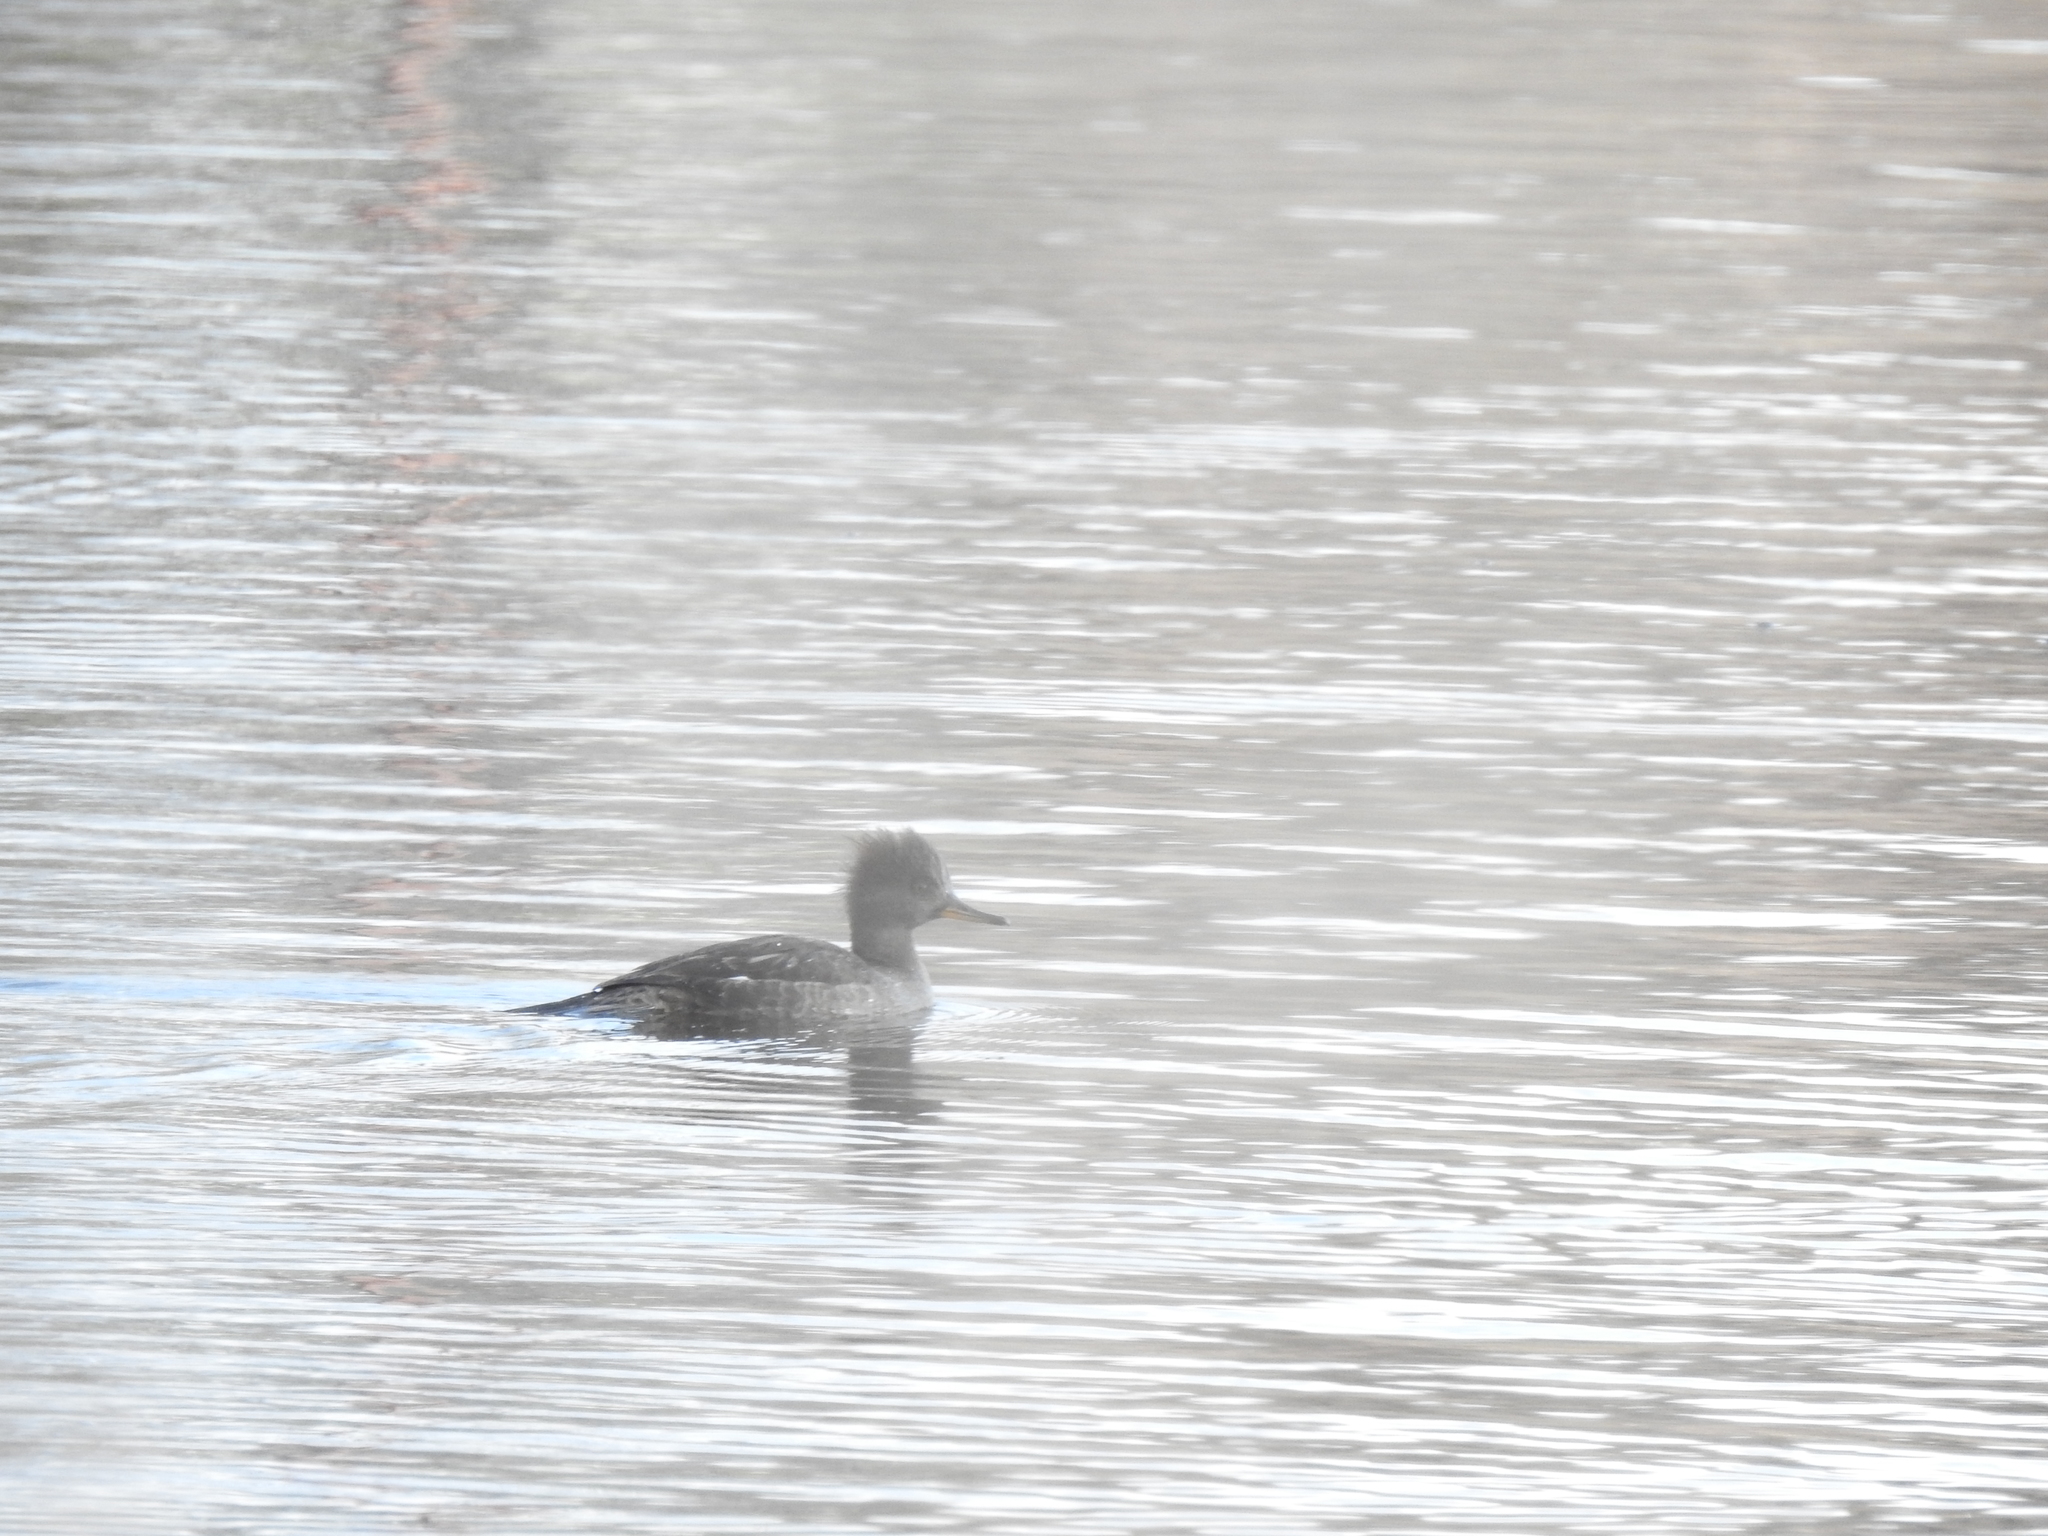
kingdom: Animalia
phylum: Chordata
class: Aves
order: Anseriformes
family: Anatidae
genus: Lophodytes
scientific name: Lophodytes cucullatus
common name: Hooded merganser
